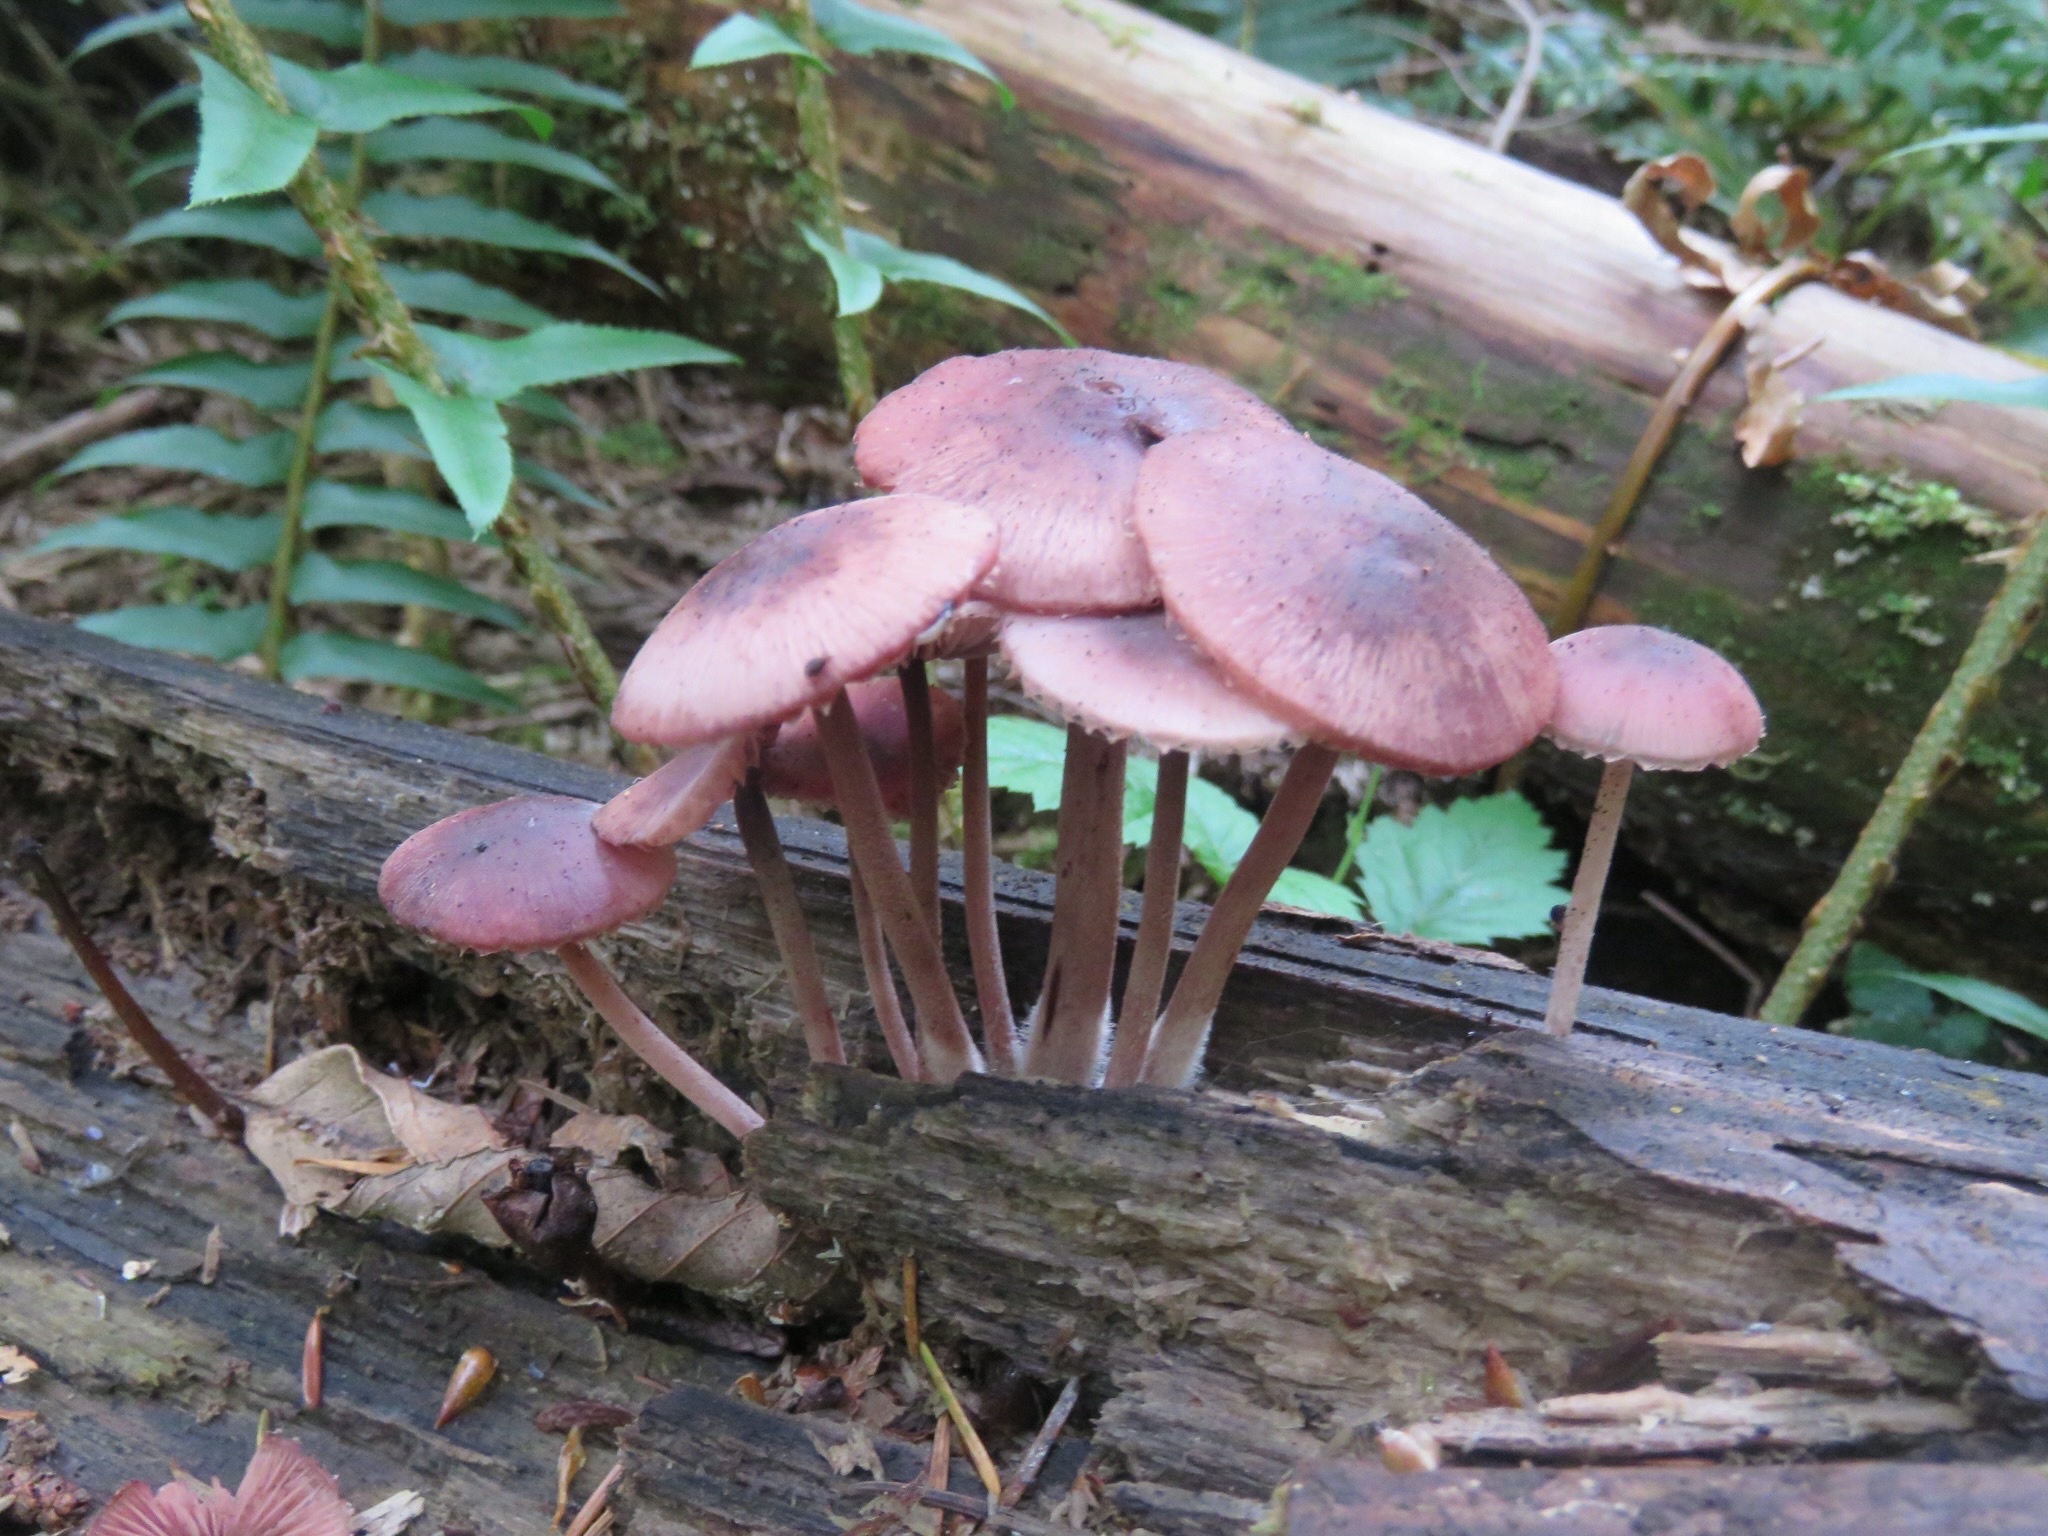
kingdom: Fungi
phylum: Basidiomycota
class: Agaricomycetes
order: Agaricales
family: Mycenaceae
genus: Mycena
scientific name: Mycena haematopus
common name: Burgundydrop bonnet
